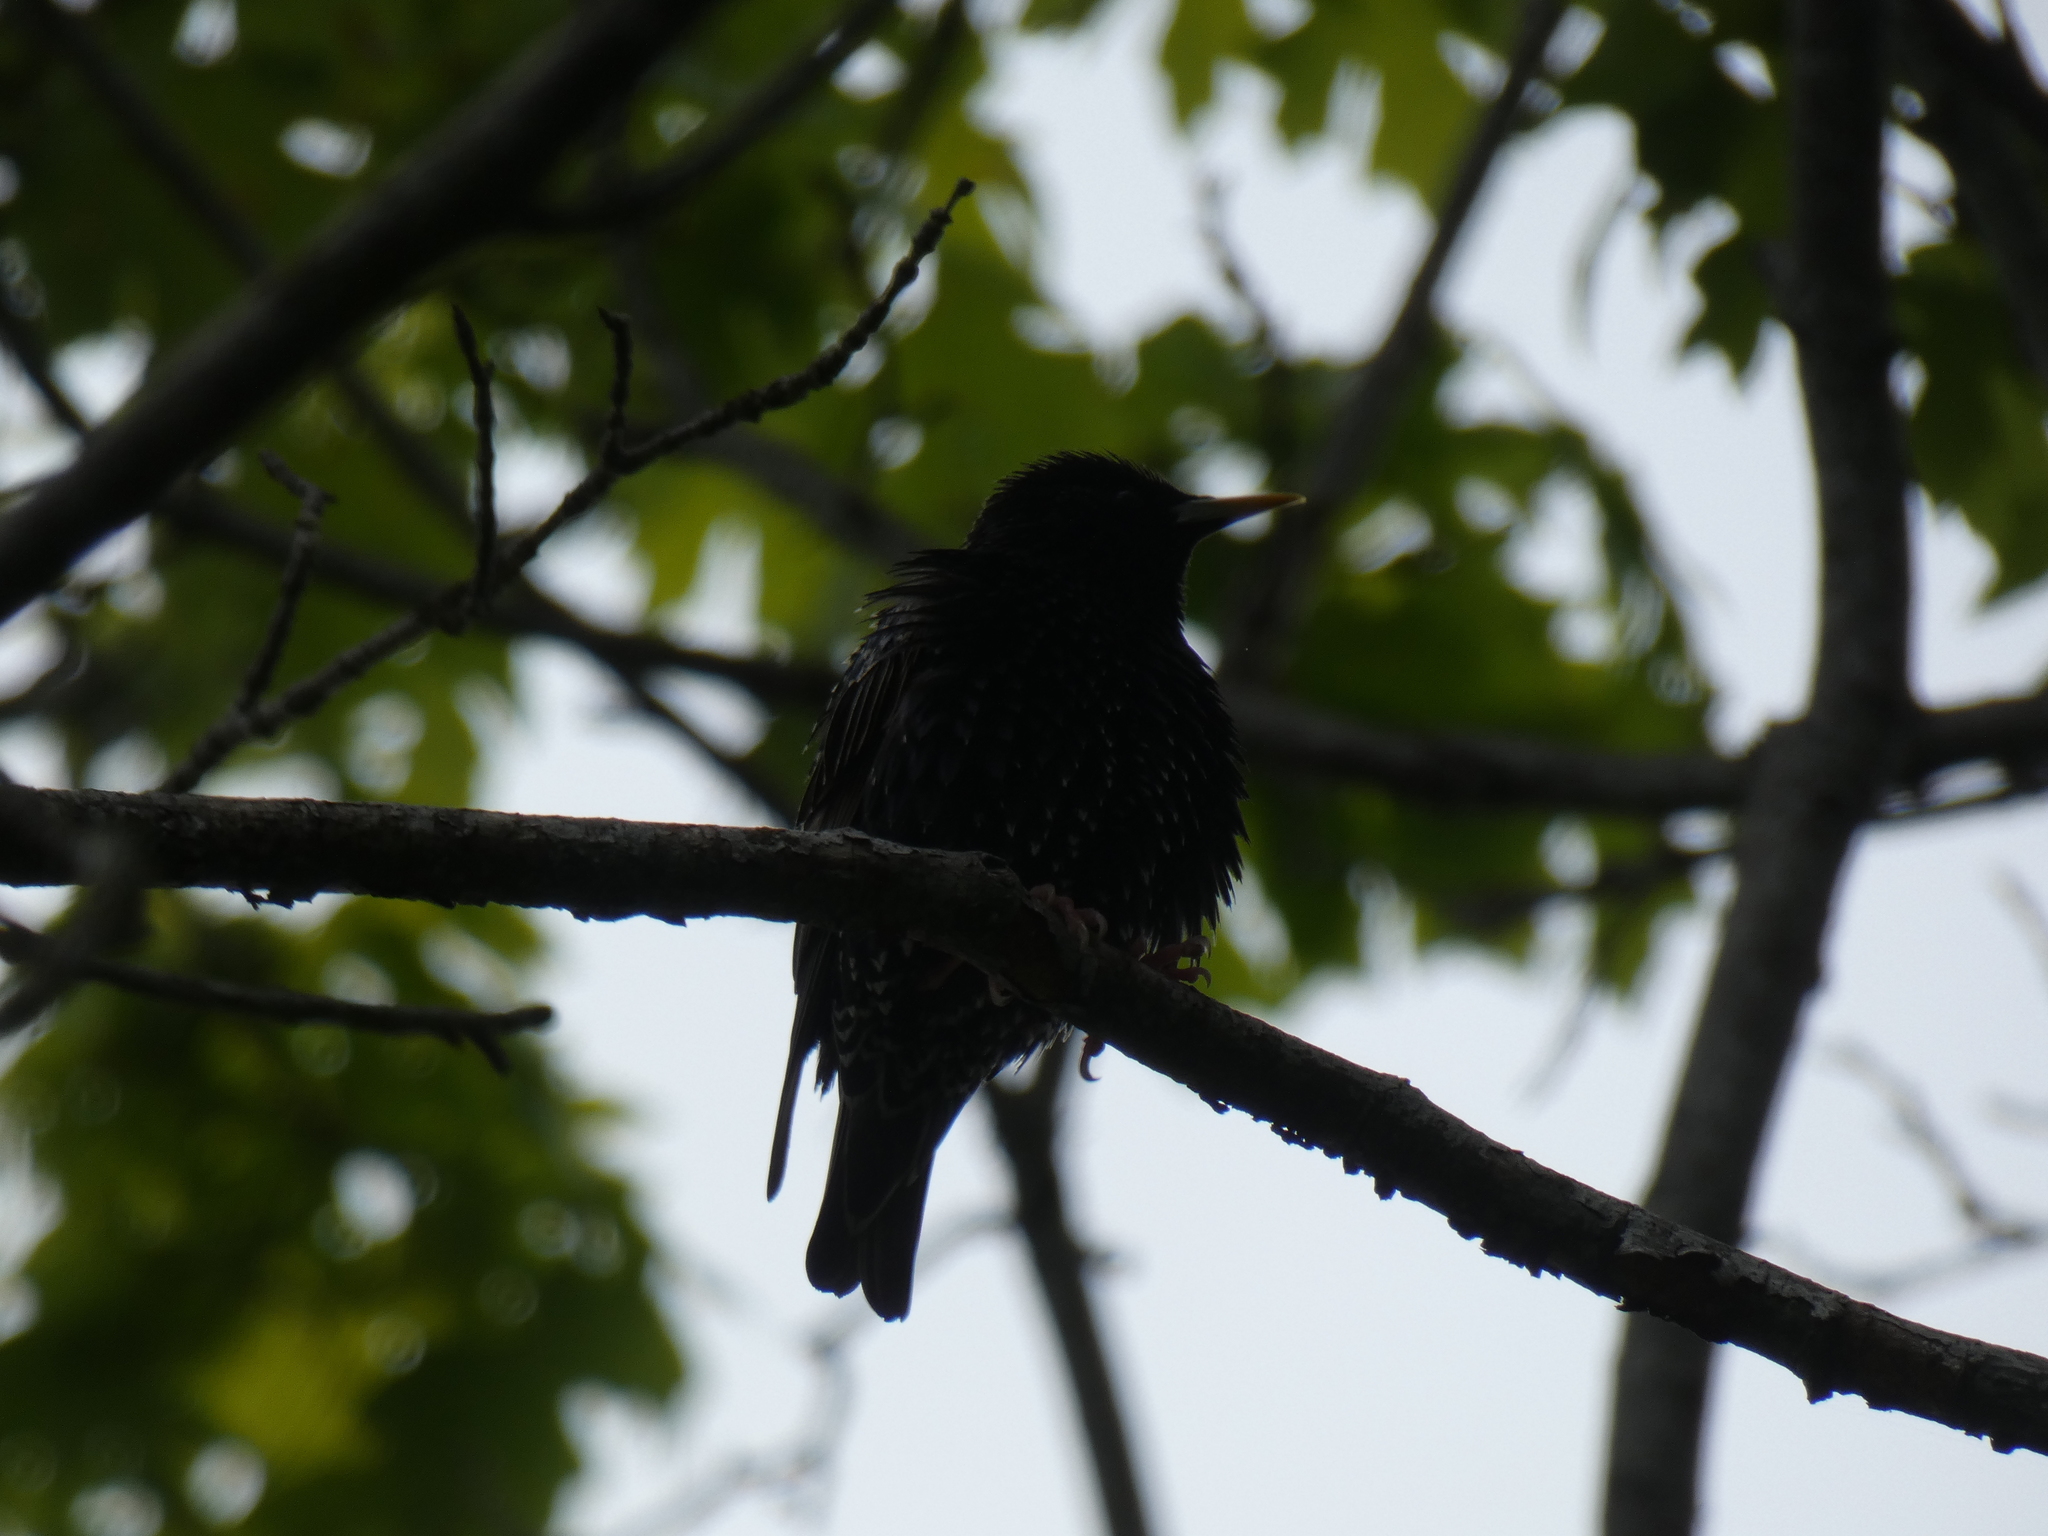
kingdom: Animalia
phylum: Chordata
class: Aves
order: Passeriformes
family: Sturnidae
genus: Sturnus
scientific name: Sturnus vulgaris
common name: Common starling
